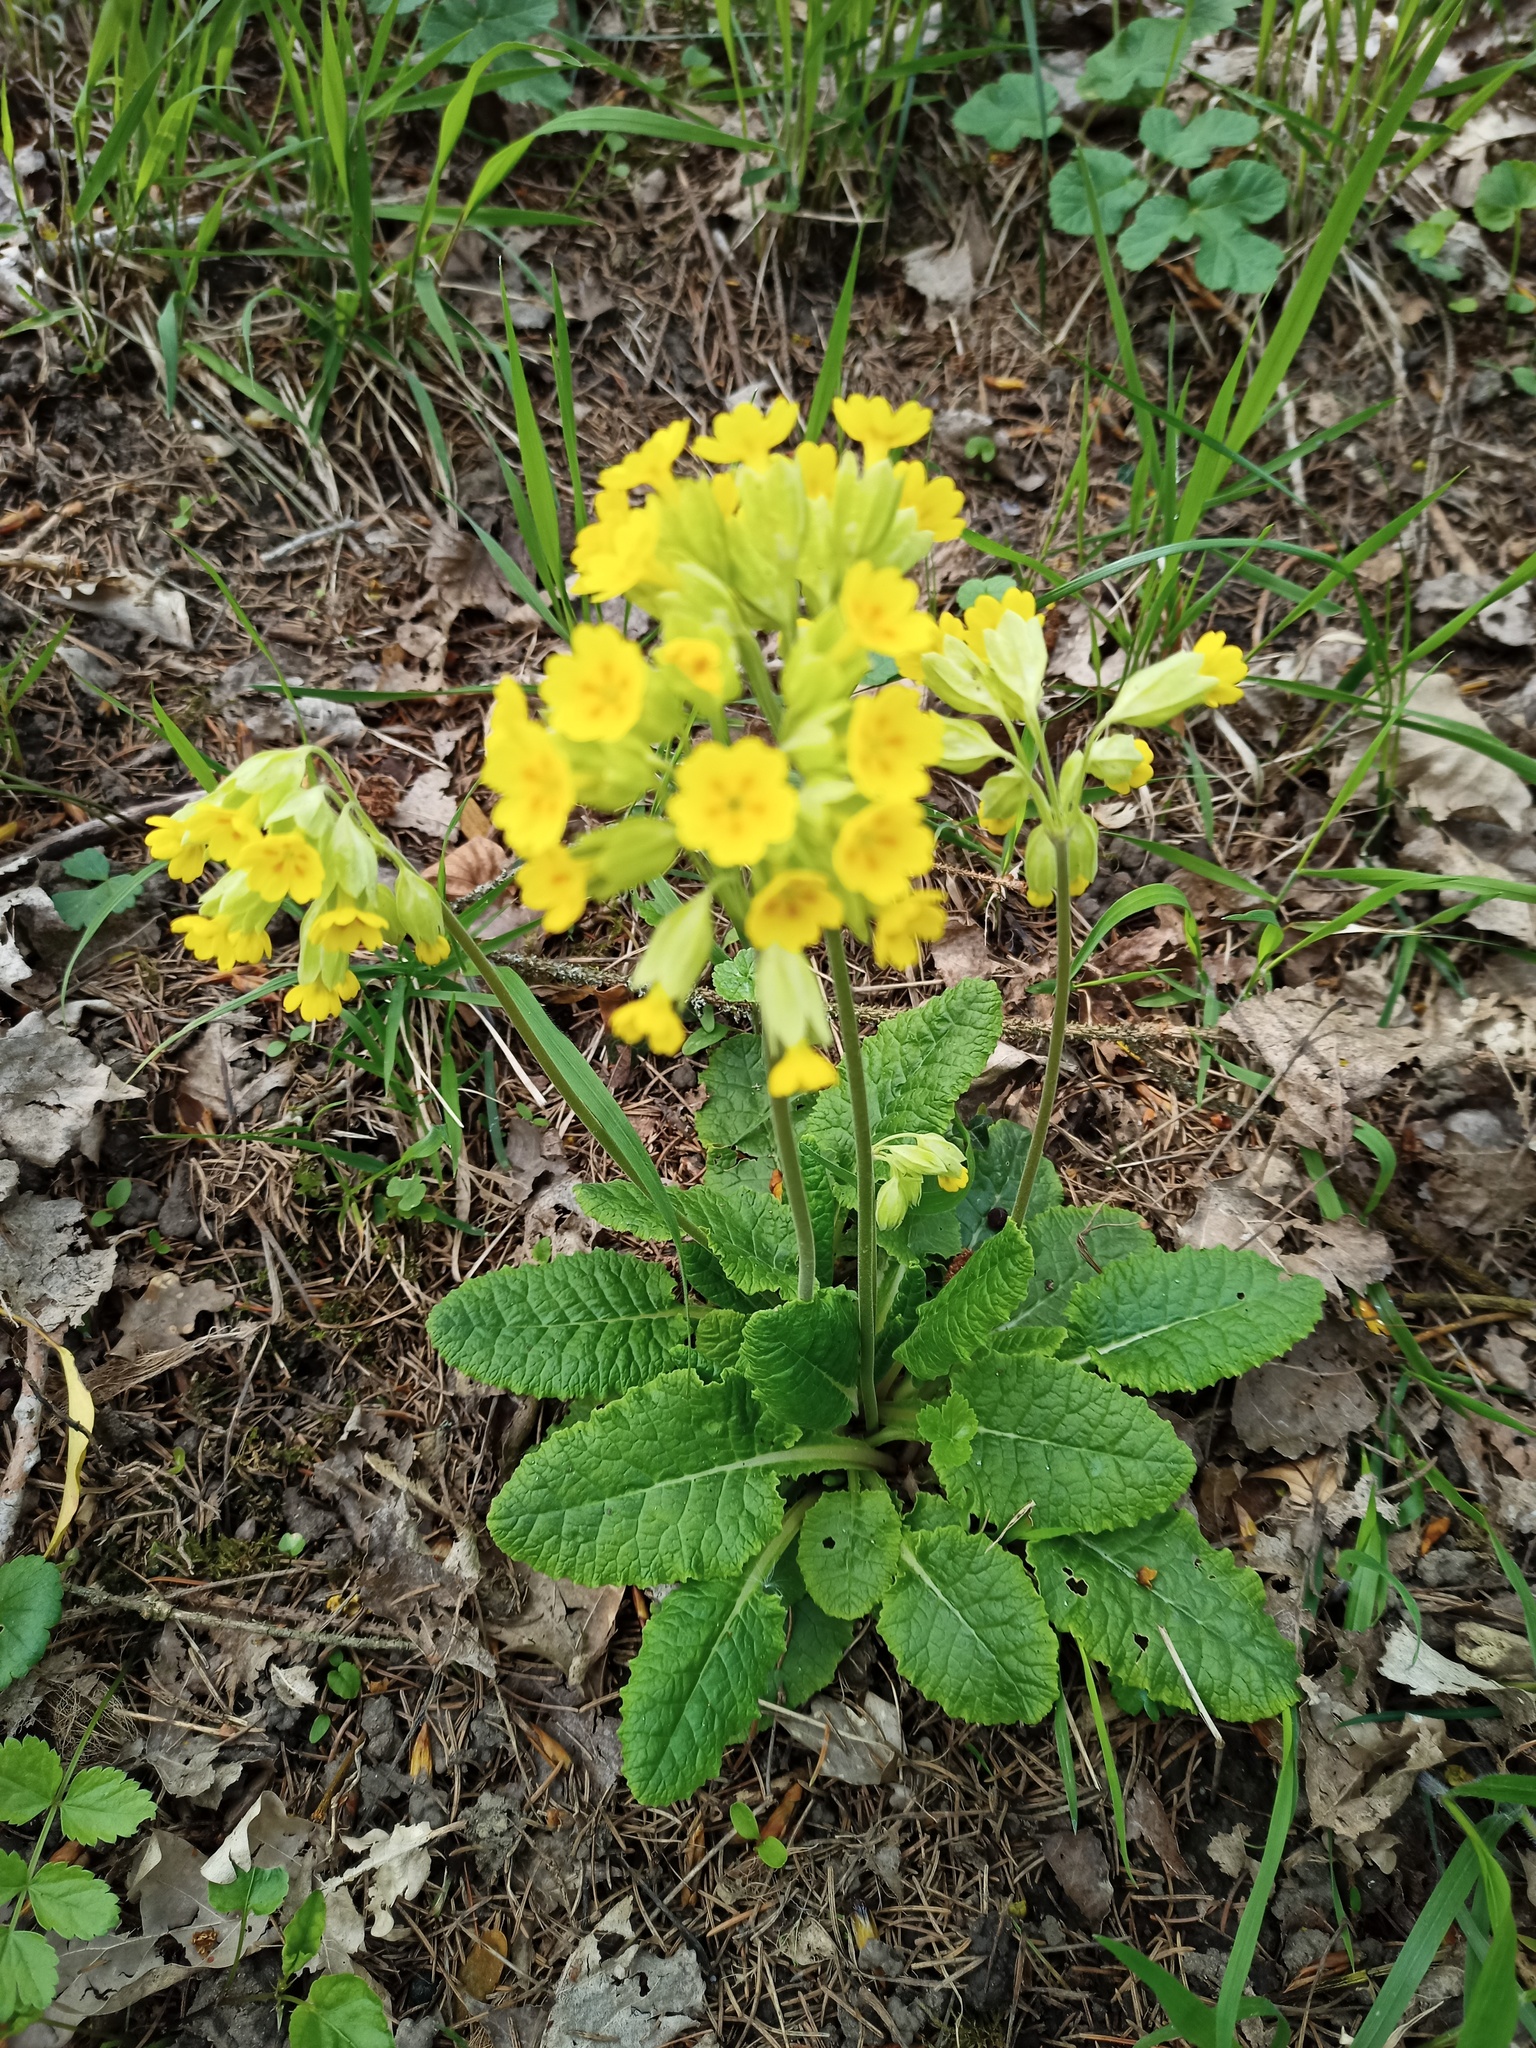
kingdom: Plantae
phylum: Tracheophyta
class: Magnoliopsida
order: Ericales
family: Primulaceae
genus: Primula
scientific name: Primula veris
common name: Cowslip
